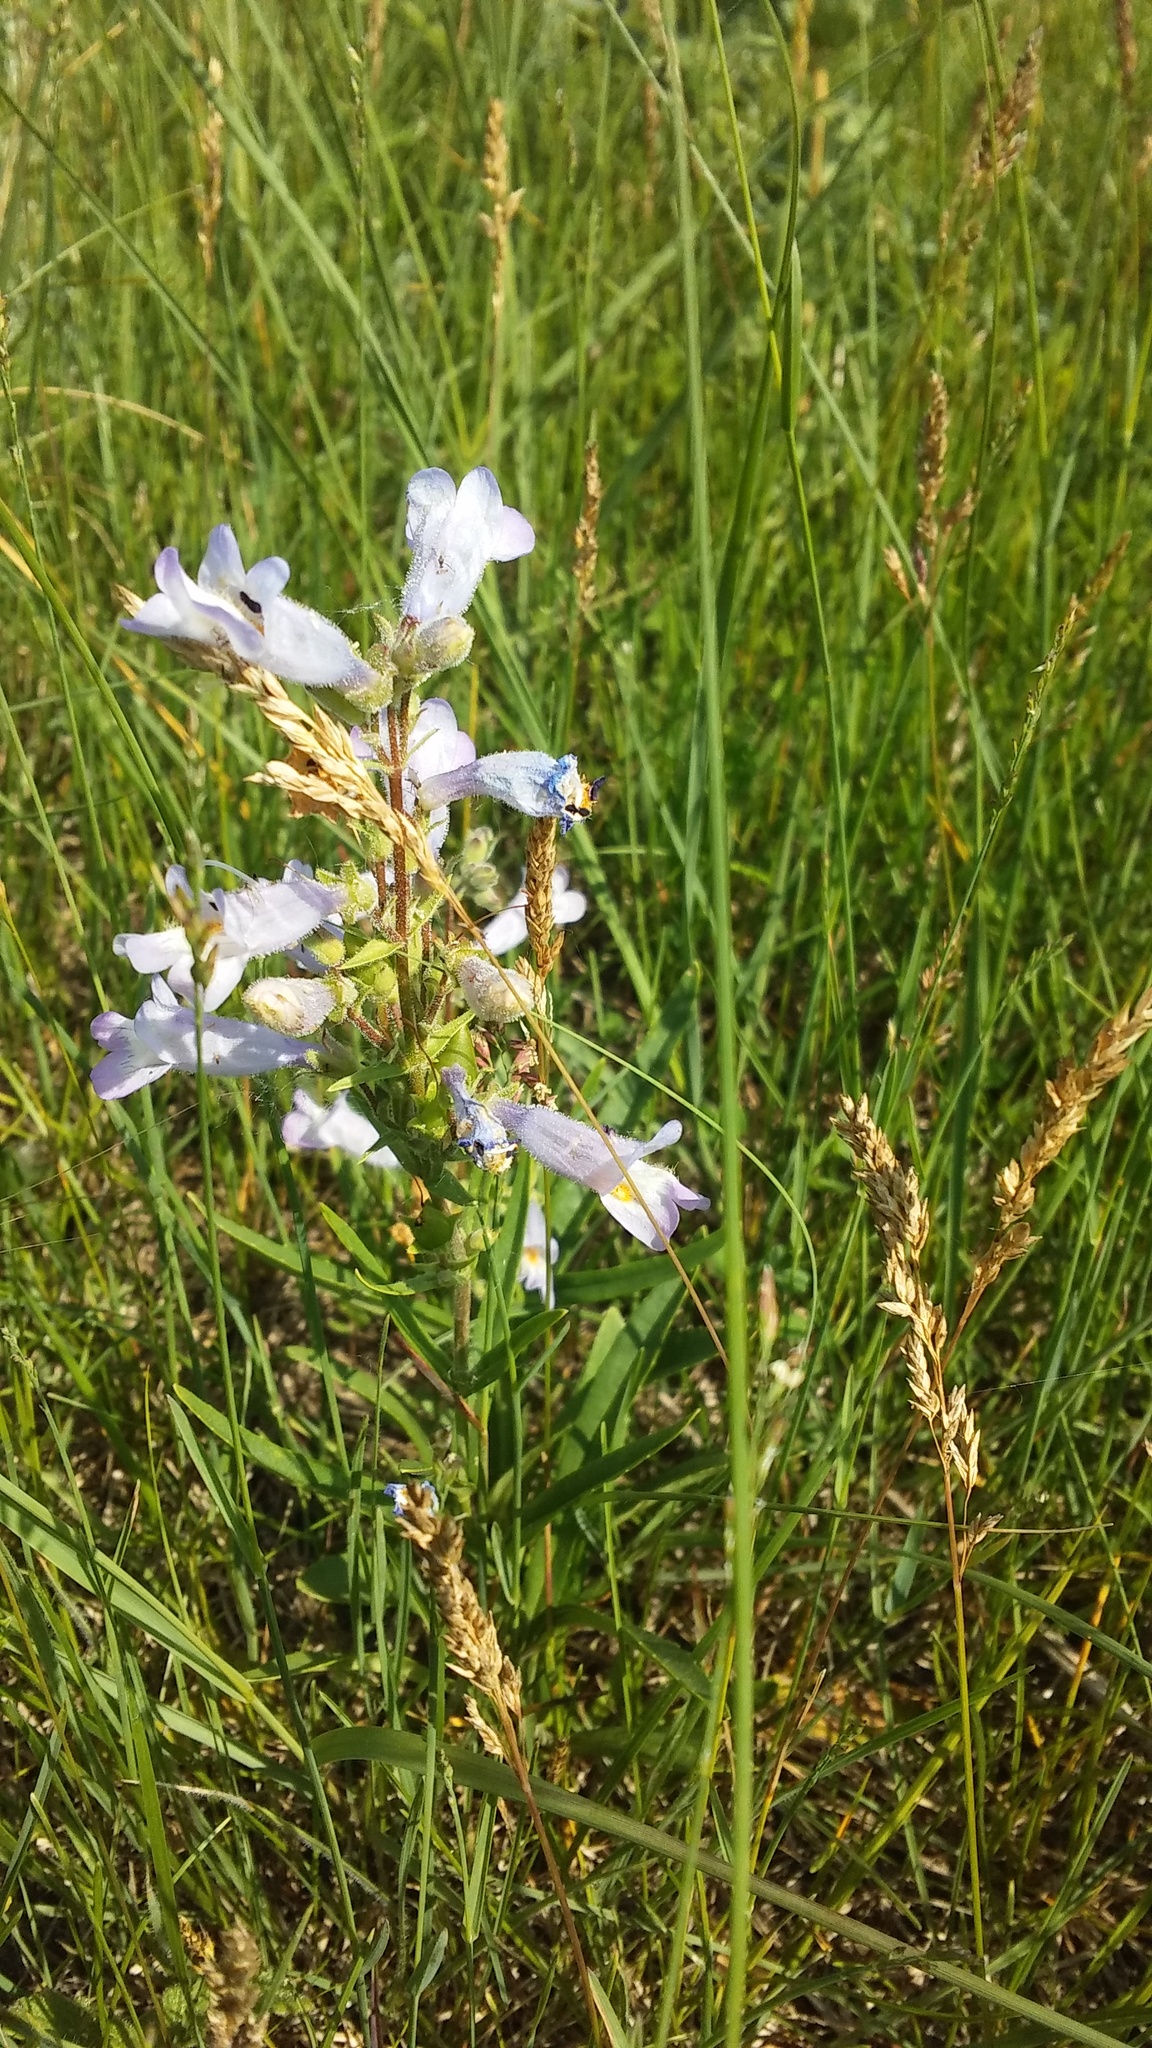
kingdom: Plantae
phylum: Tracheophyta
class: Magnoliopsida
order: Lamiales
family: Plantaginaceae
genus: Penstemon
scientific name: Penstemon gracilis
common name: Slender beardtongue
